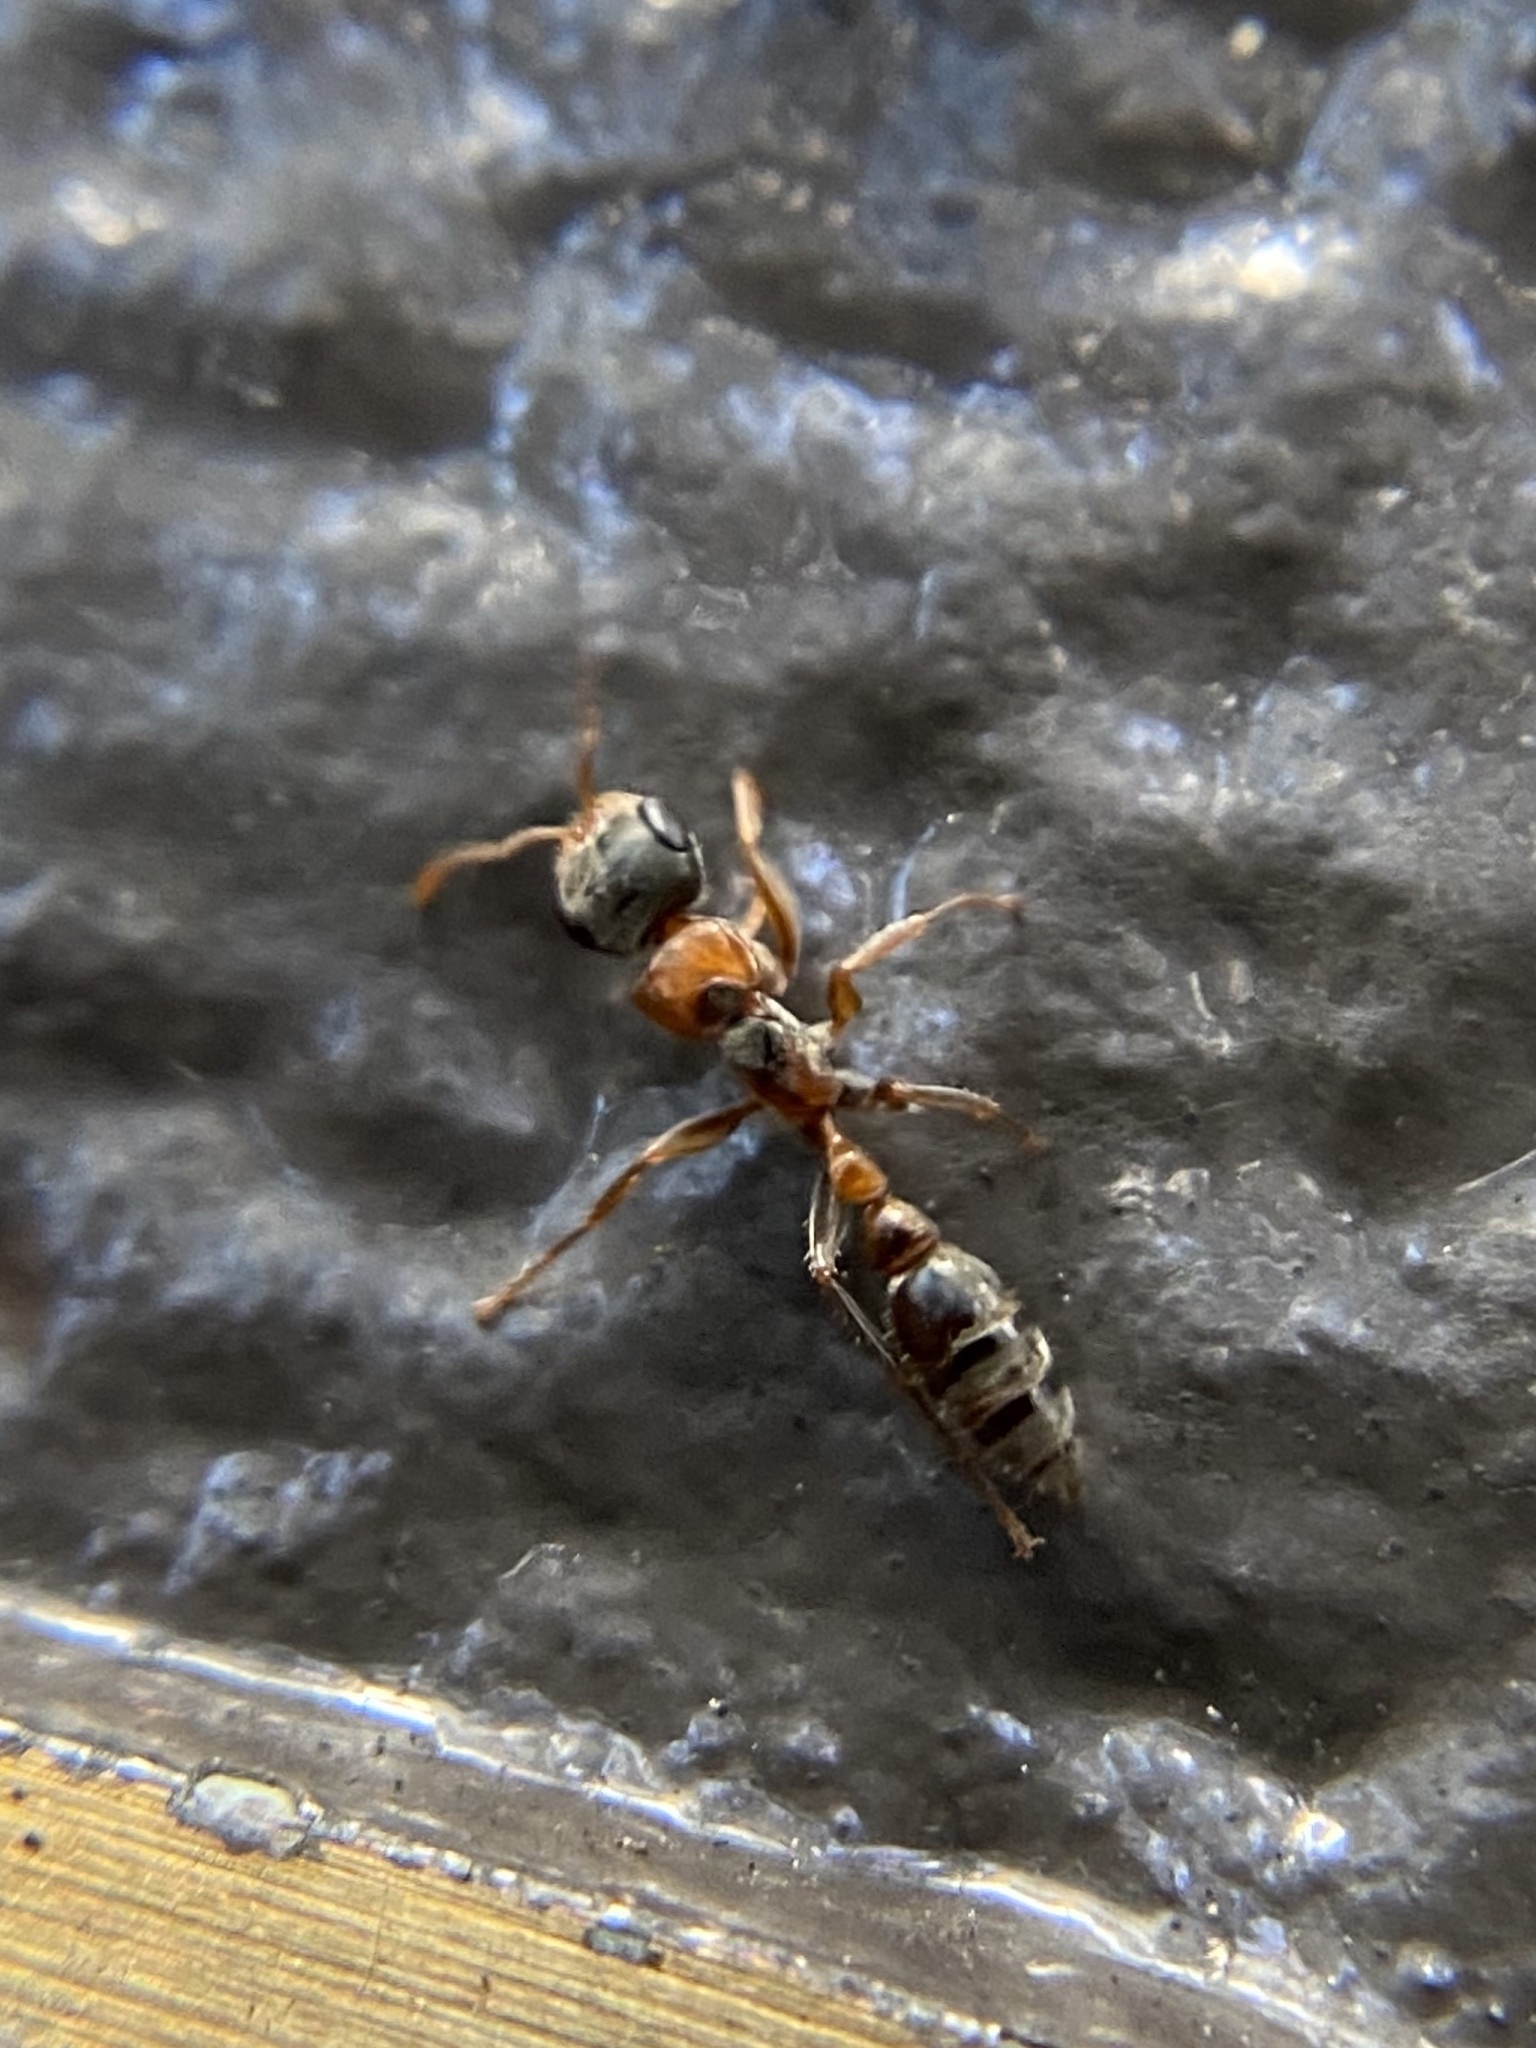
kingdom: Animalia
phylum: Arthropoda
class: Insecta
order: Hymenoptera
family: Formicidae
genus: Pseudomyrmex
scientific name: Pseudomyrmex gracilis
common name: Graceful twig ant
